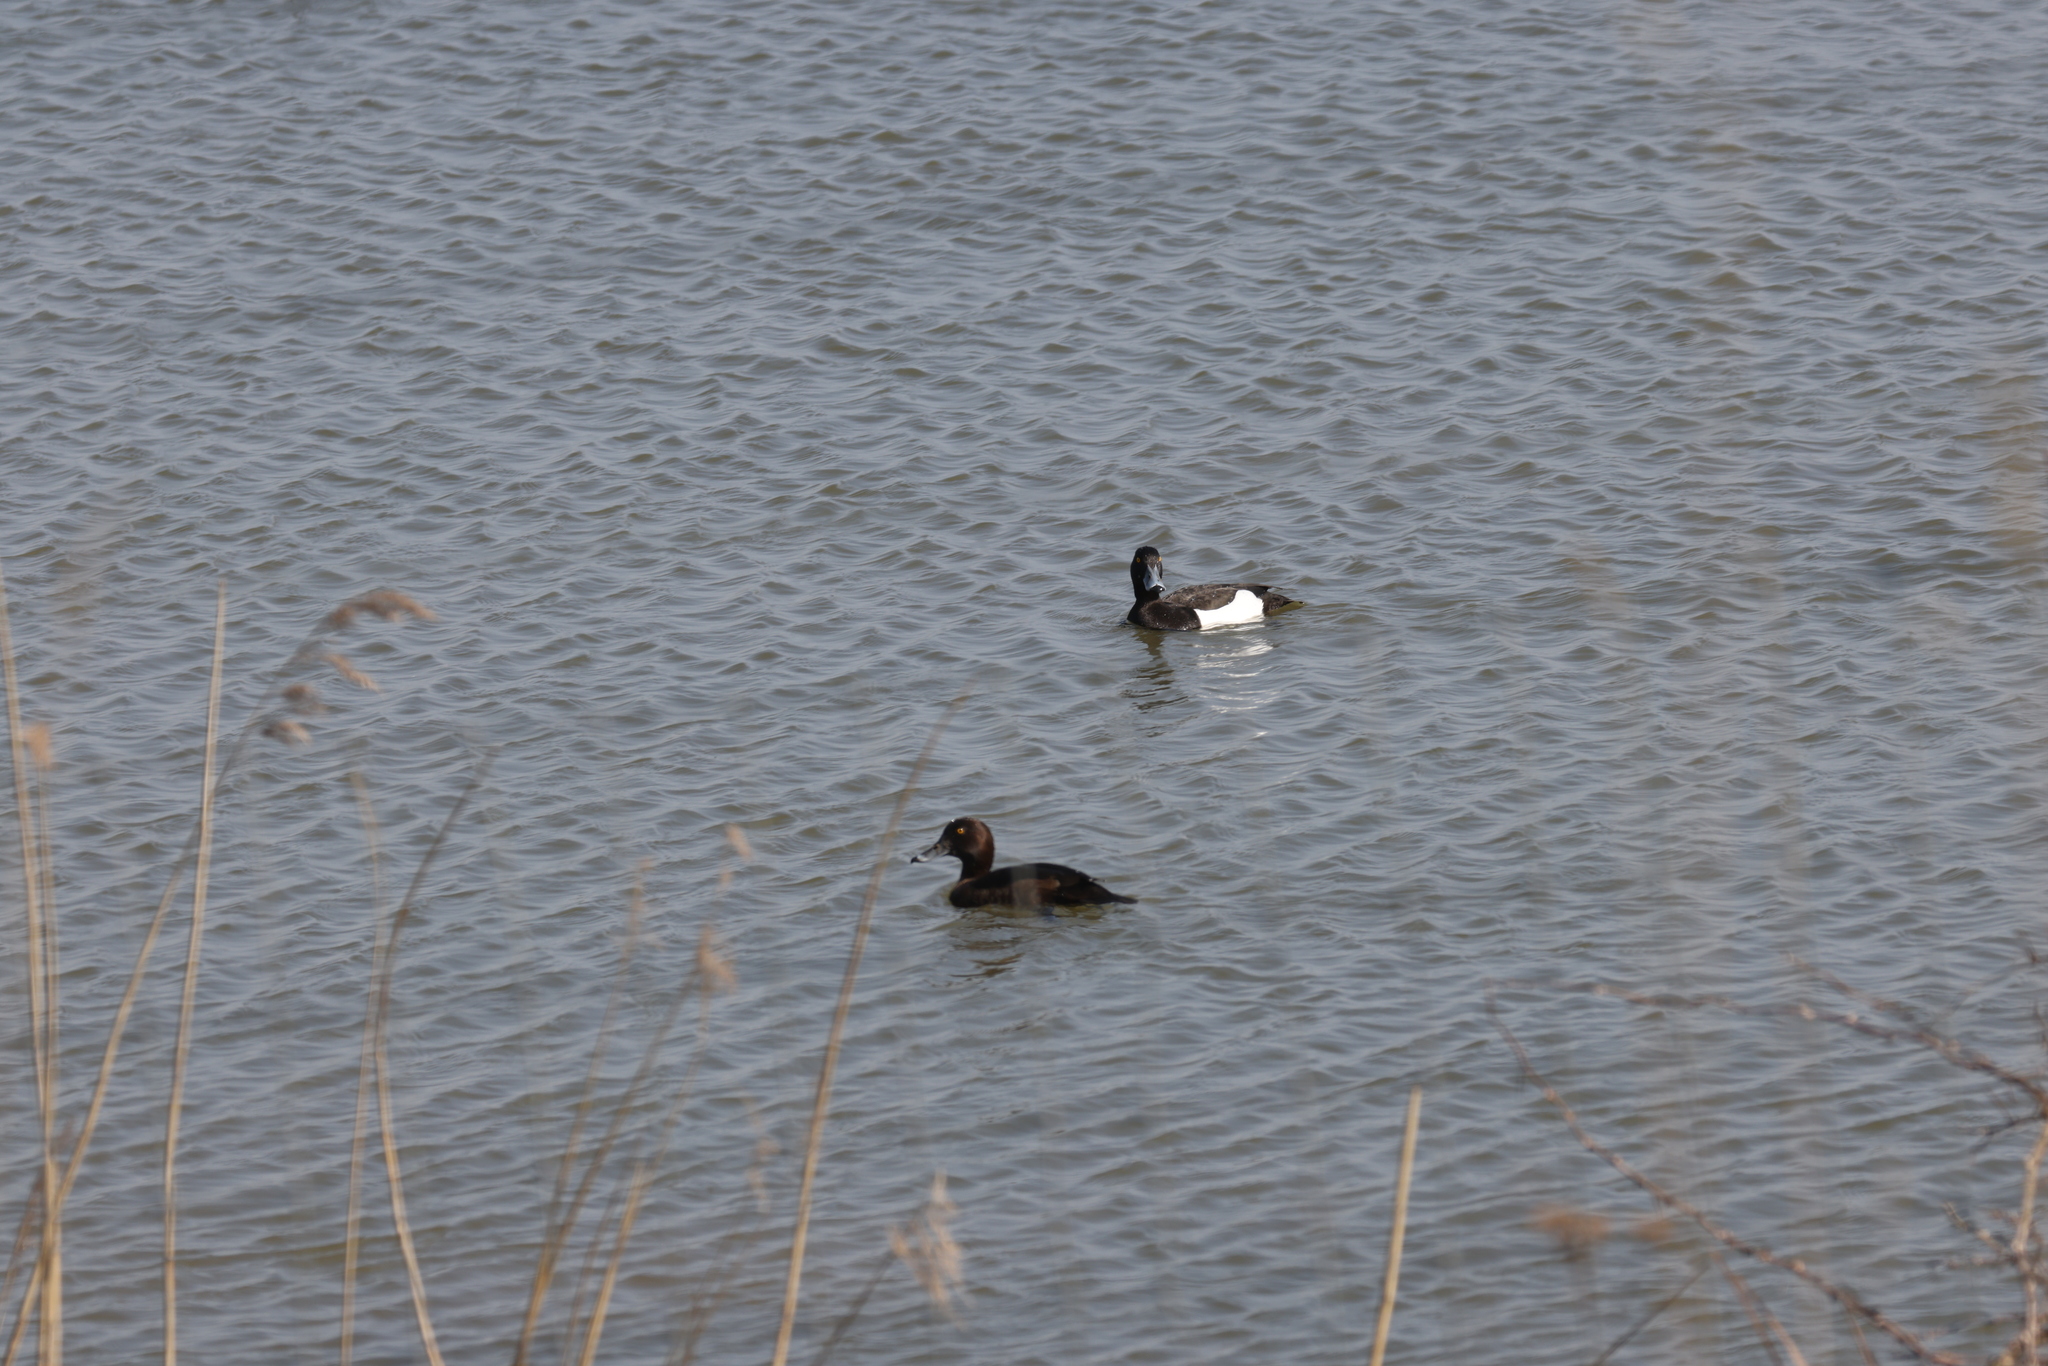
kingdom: Animalia
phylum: Chordata
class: Aves
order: Anseriformes
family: Anatidae
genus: Aythya
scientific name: Aythya fuligula
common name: Tufted duck
